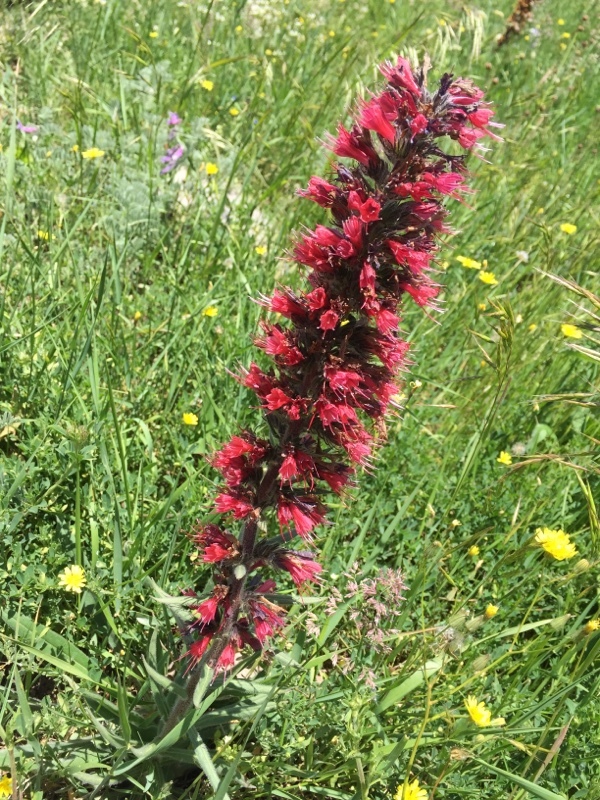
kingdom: Plantae
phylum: Tracheophyta
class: Magnoliopsida
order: Boraginales
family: Boraginaceae
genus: Pontechium
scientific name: Pontechium maculatum
